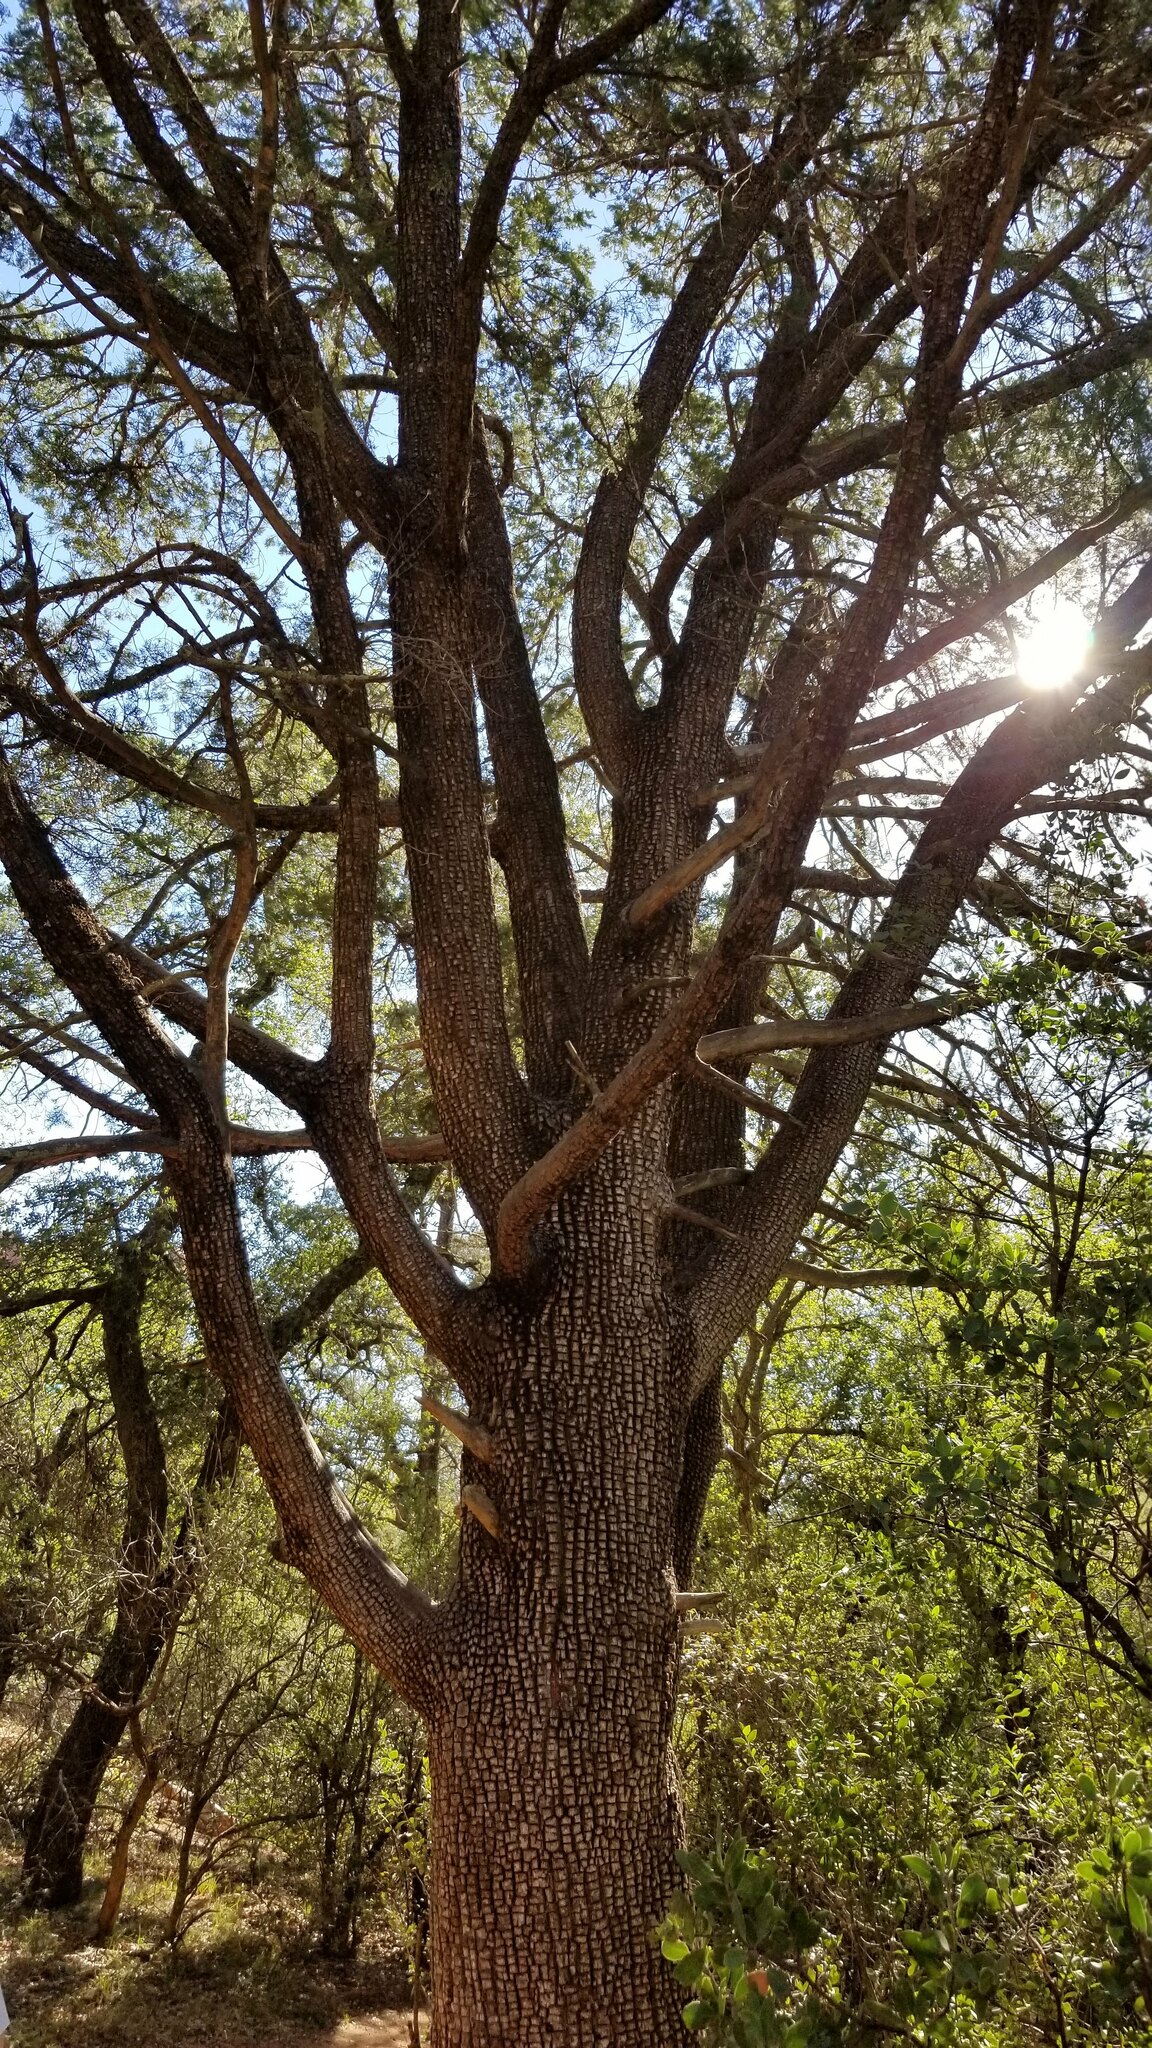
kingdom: Plantae
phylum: Tracheophyta
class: Pinopsida
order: Pinales
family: Cupressaceae
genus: Juniperus
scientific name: Juniperus deppeana
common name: Alligator juniper
